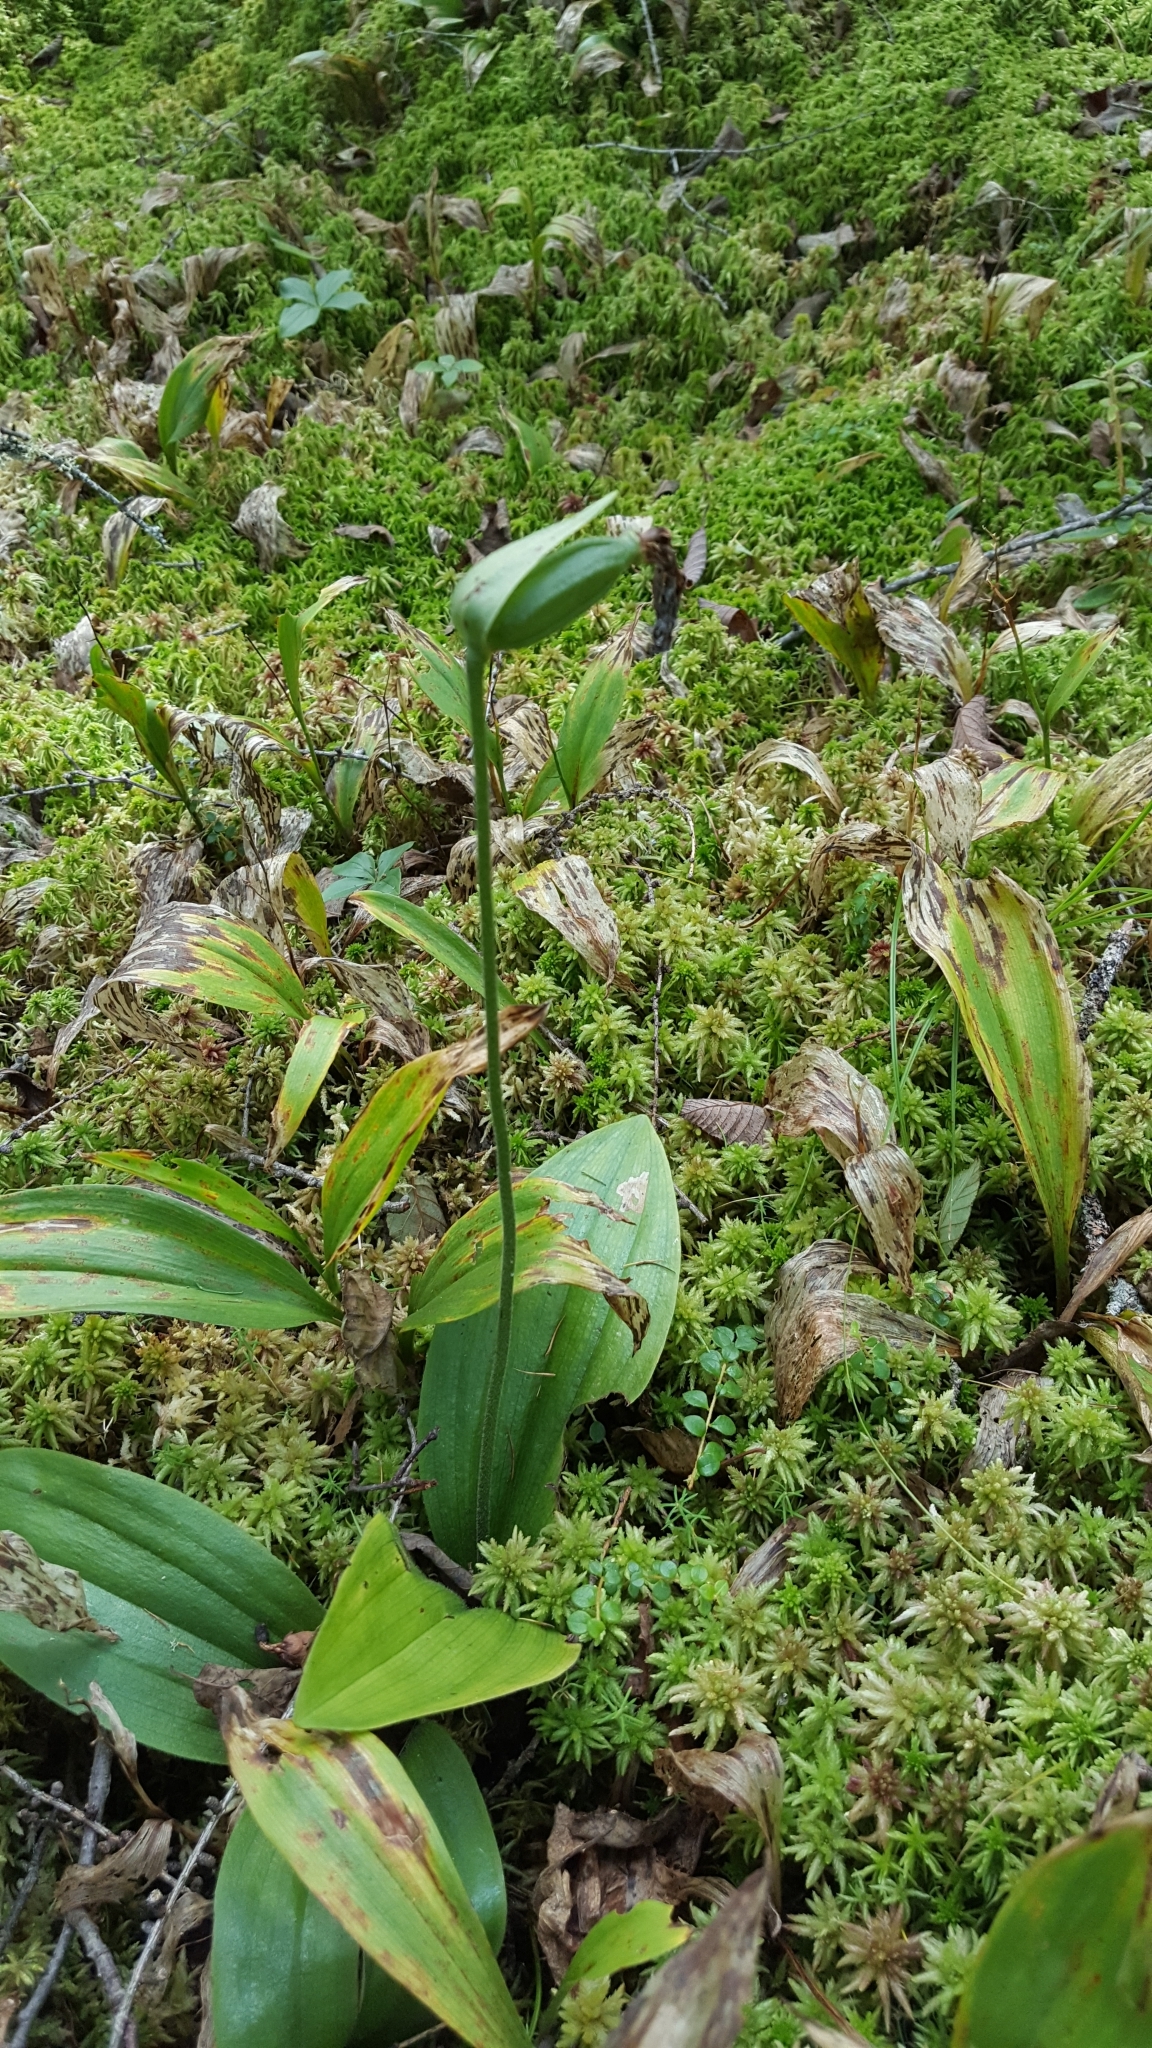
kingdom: Plantae
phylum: Tracheophyta
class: Liliopsida
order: Asparagales
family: Orchidaceae
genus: Cypripedium
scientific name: Cypripedium acaule
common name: Pink lady's-slipper
